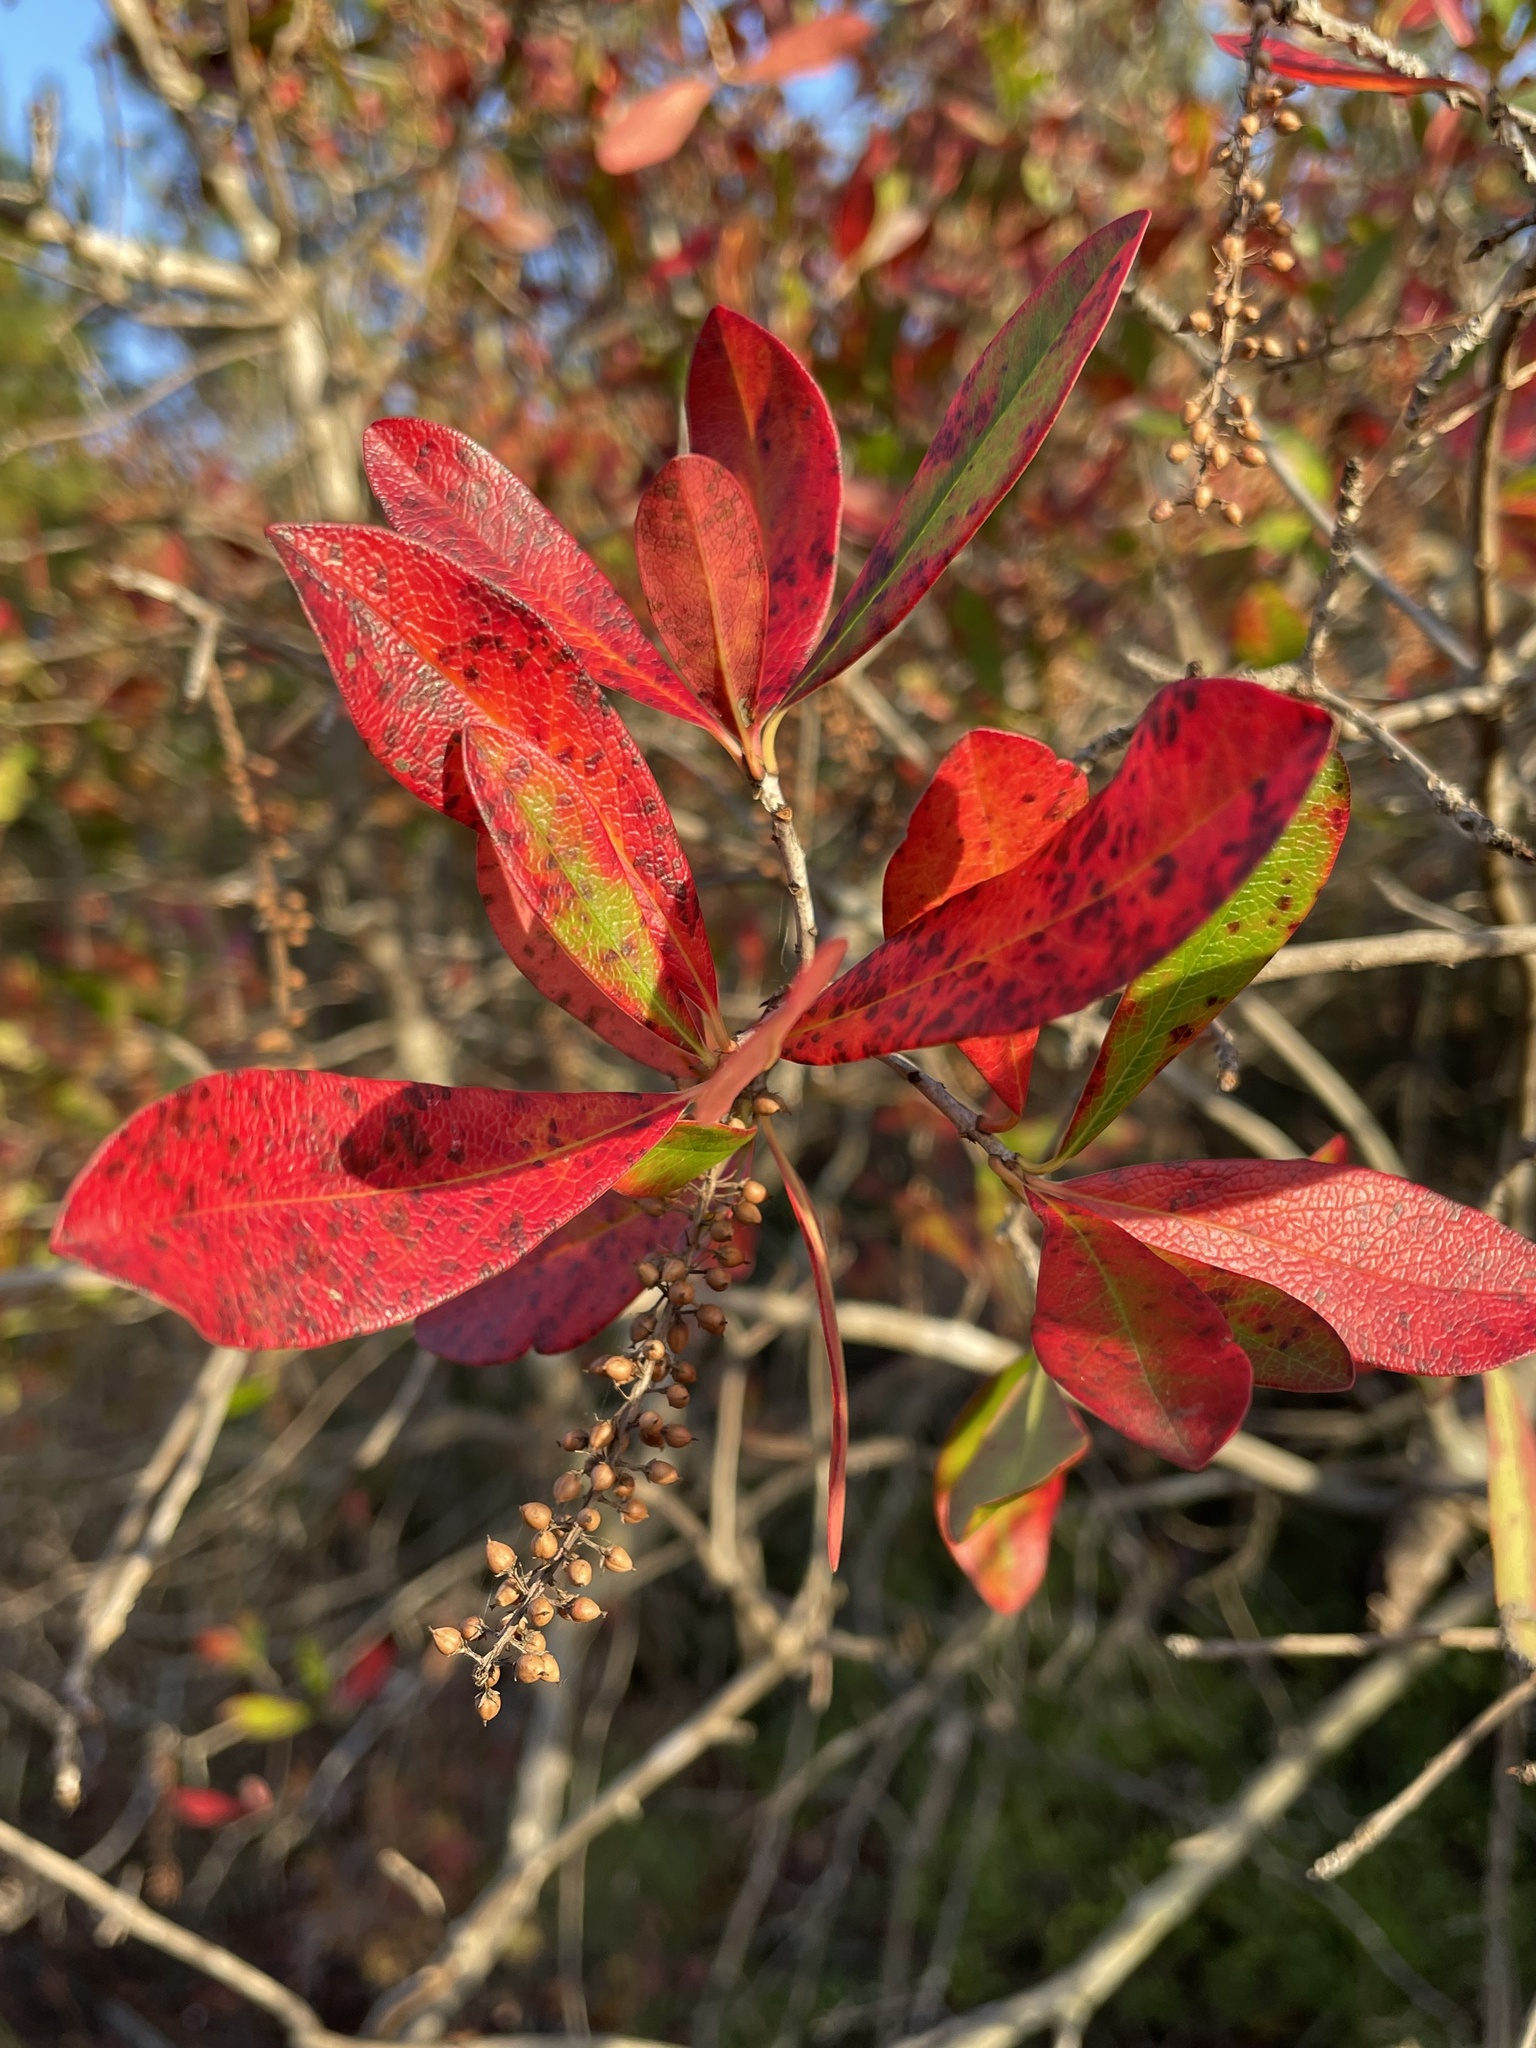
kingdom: Plantae
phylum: Tracheophyta
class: Magnoliopsida
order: Ericales
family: Cyrillaceae
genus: Cyrilla
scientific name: Cyrilla racemiflora
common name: Black titi
